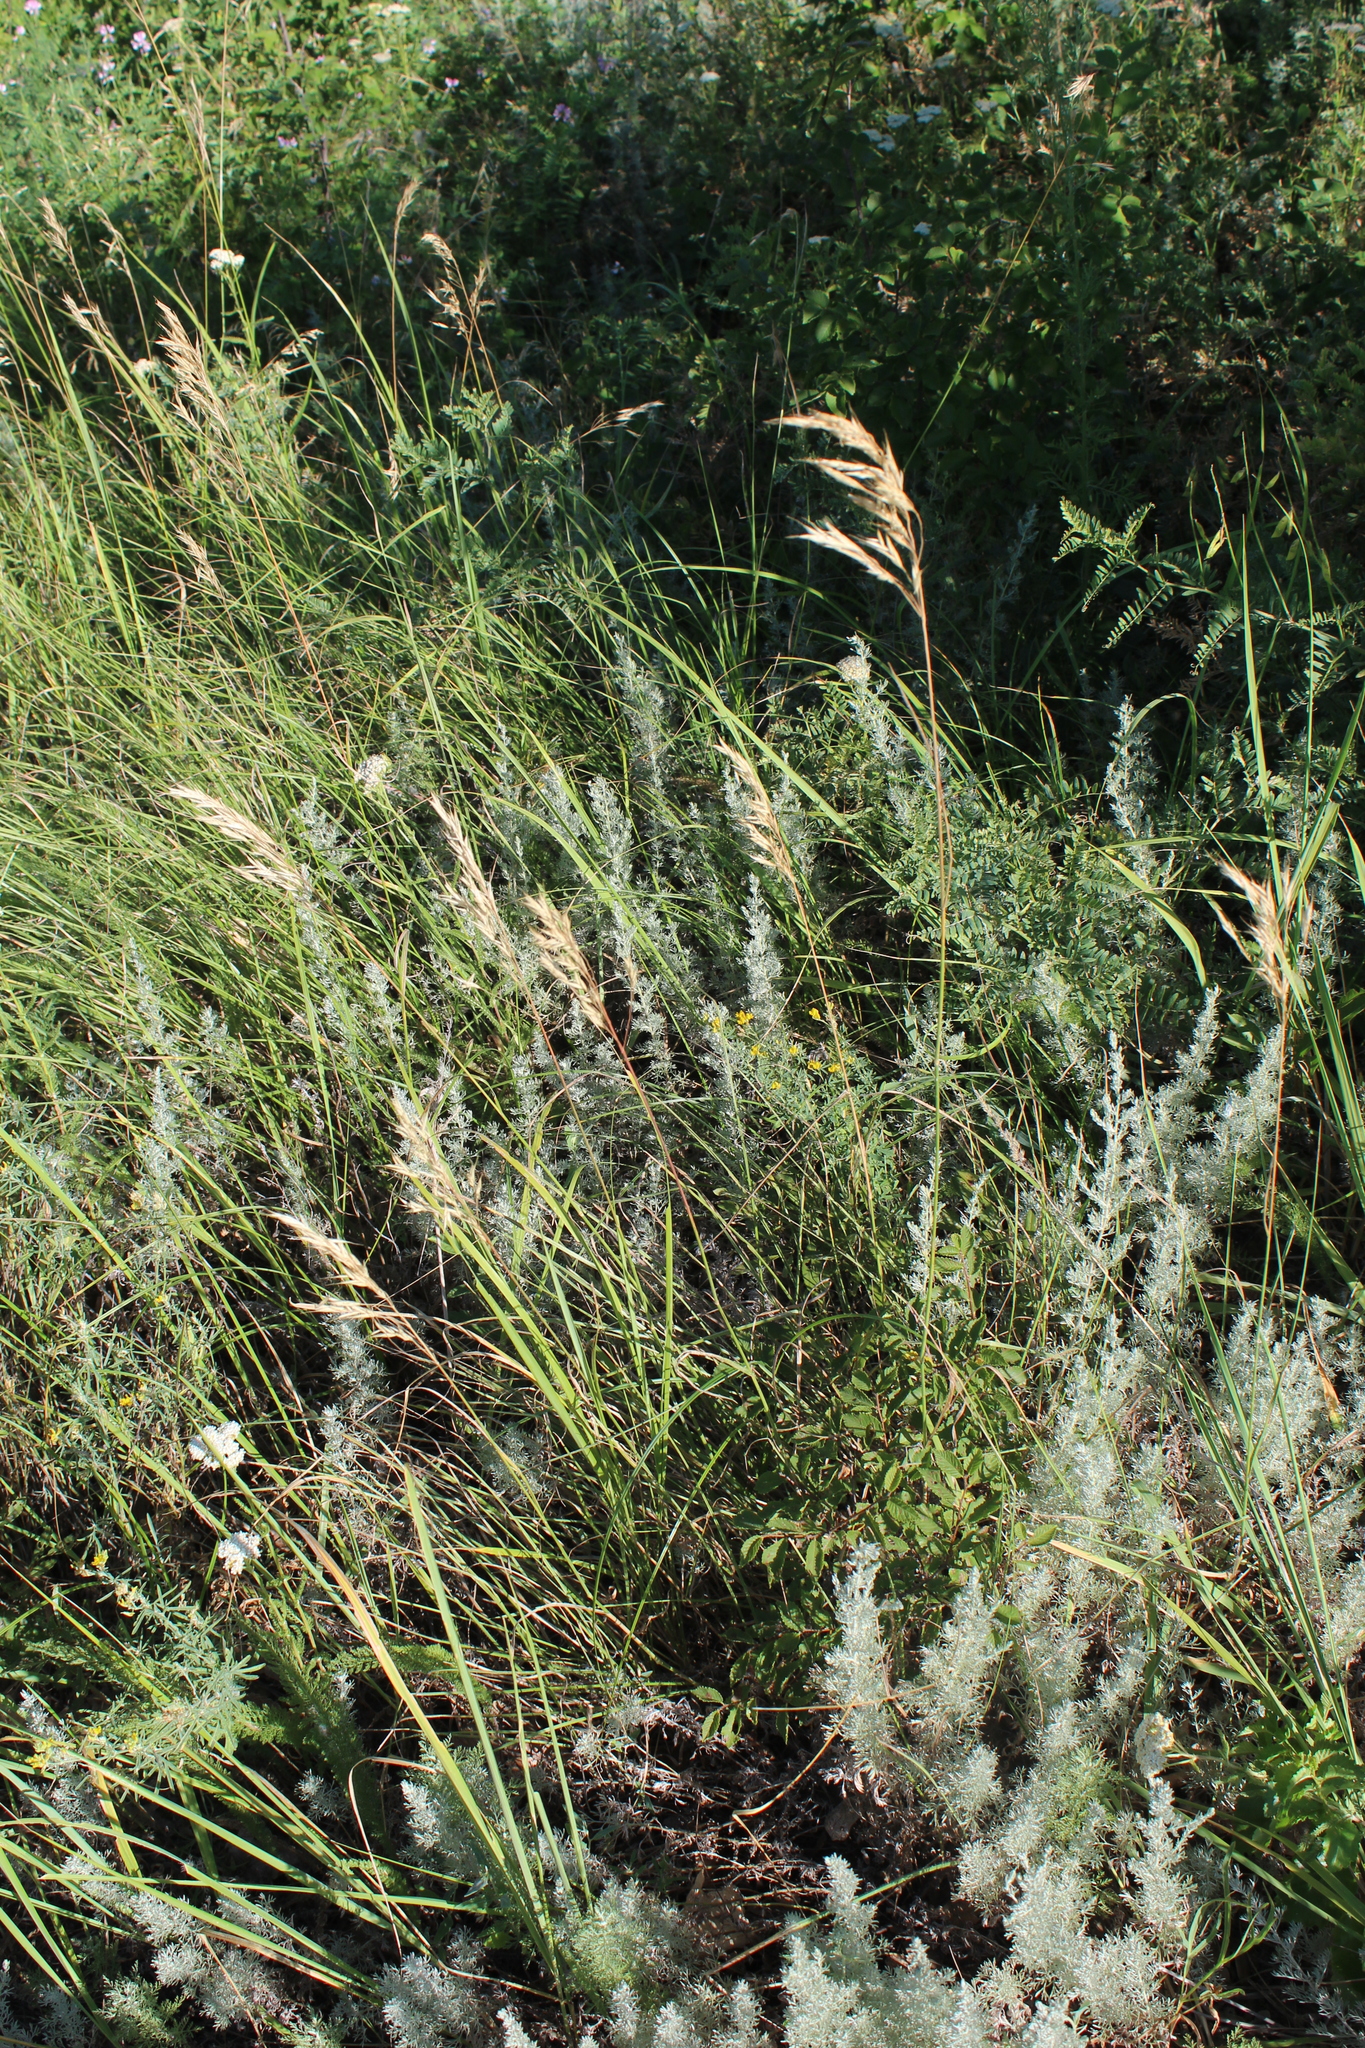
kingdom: Plantae
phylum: Tracheophyta
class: Liliopsida
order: Poales
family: Poaceae
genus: Bromus
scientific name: Bromus riparius
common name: Meadow brome
